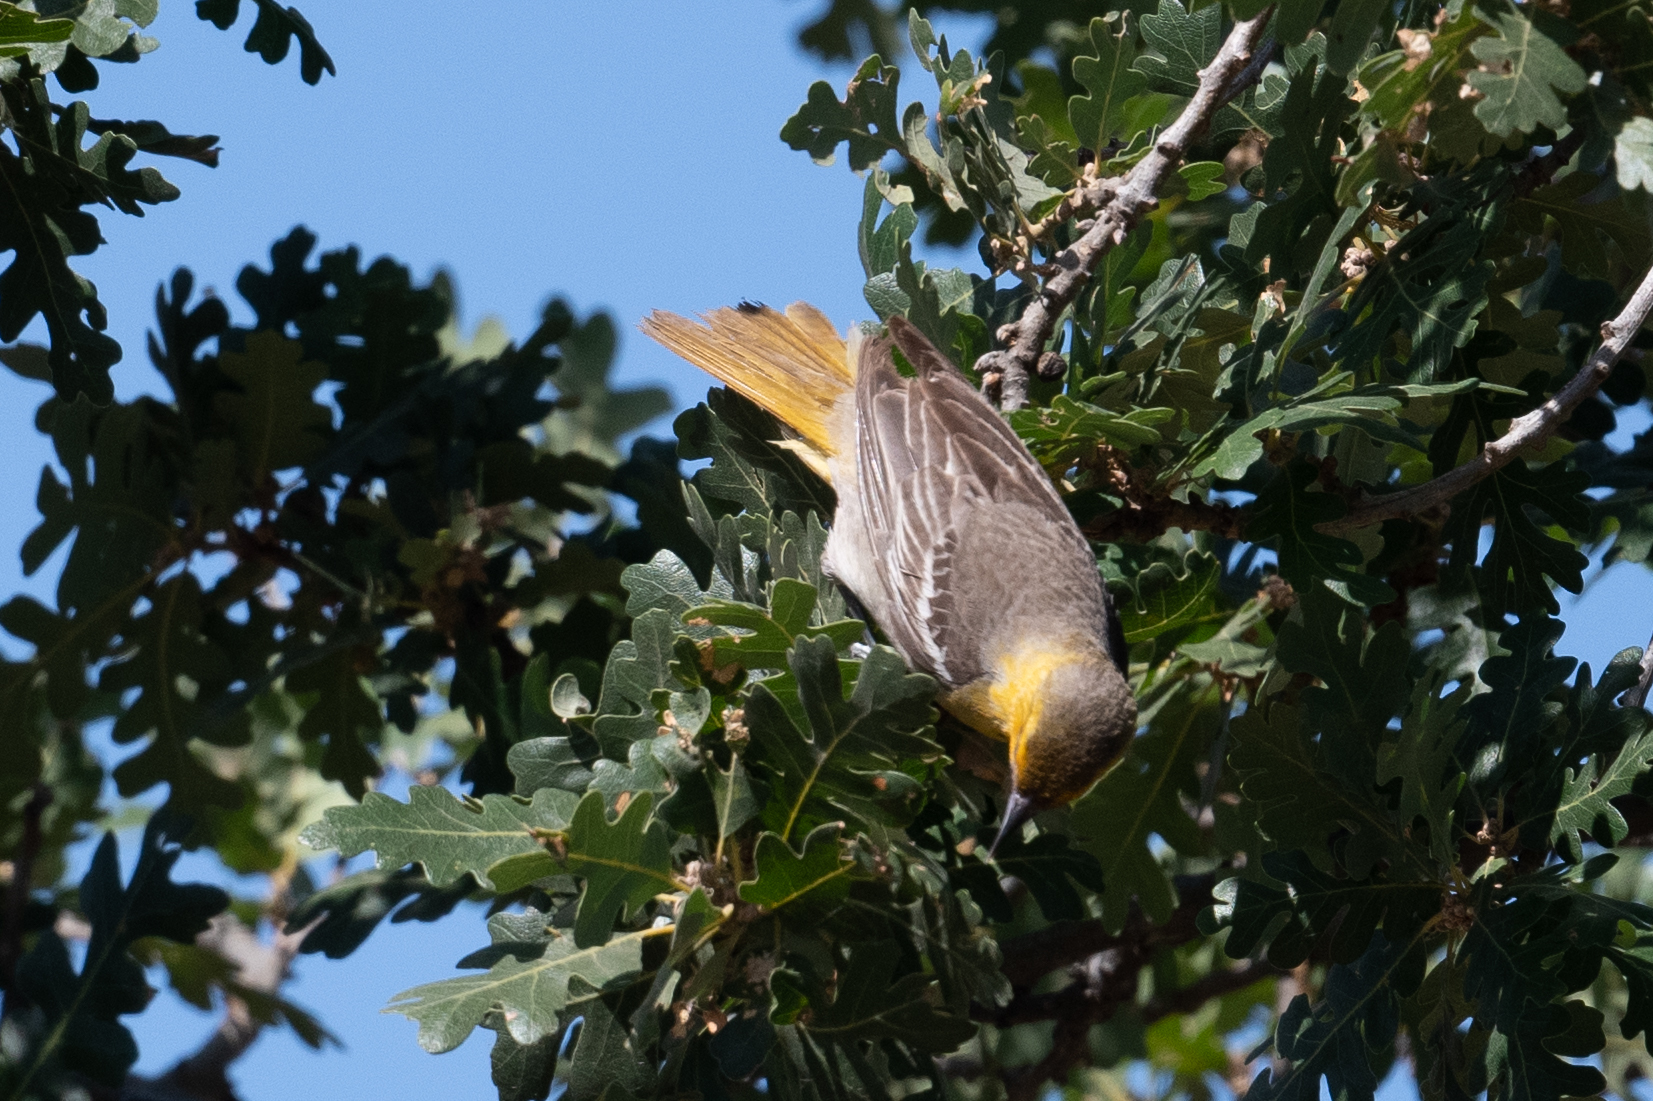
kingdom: Animalia
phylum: Chordata
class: Aves
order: Passeriformes
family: Icteridae
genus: Icterus
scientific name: Icterus bullockii
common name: Bullock's oriole
